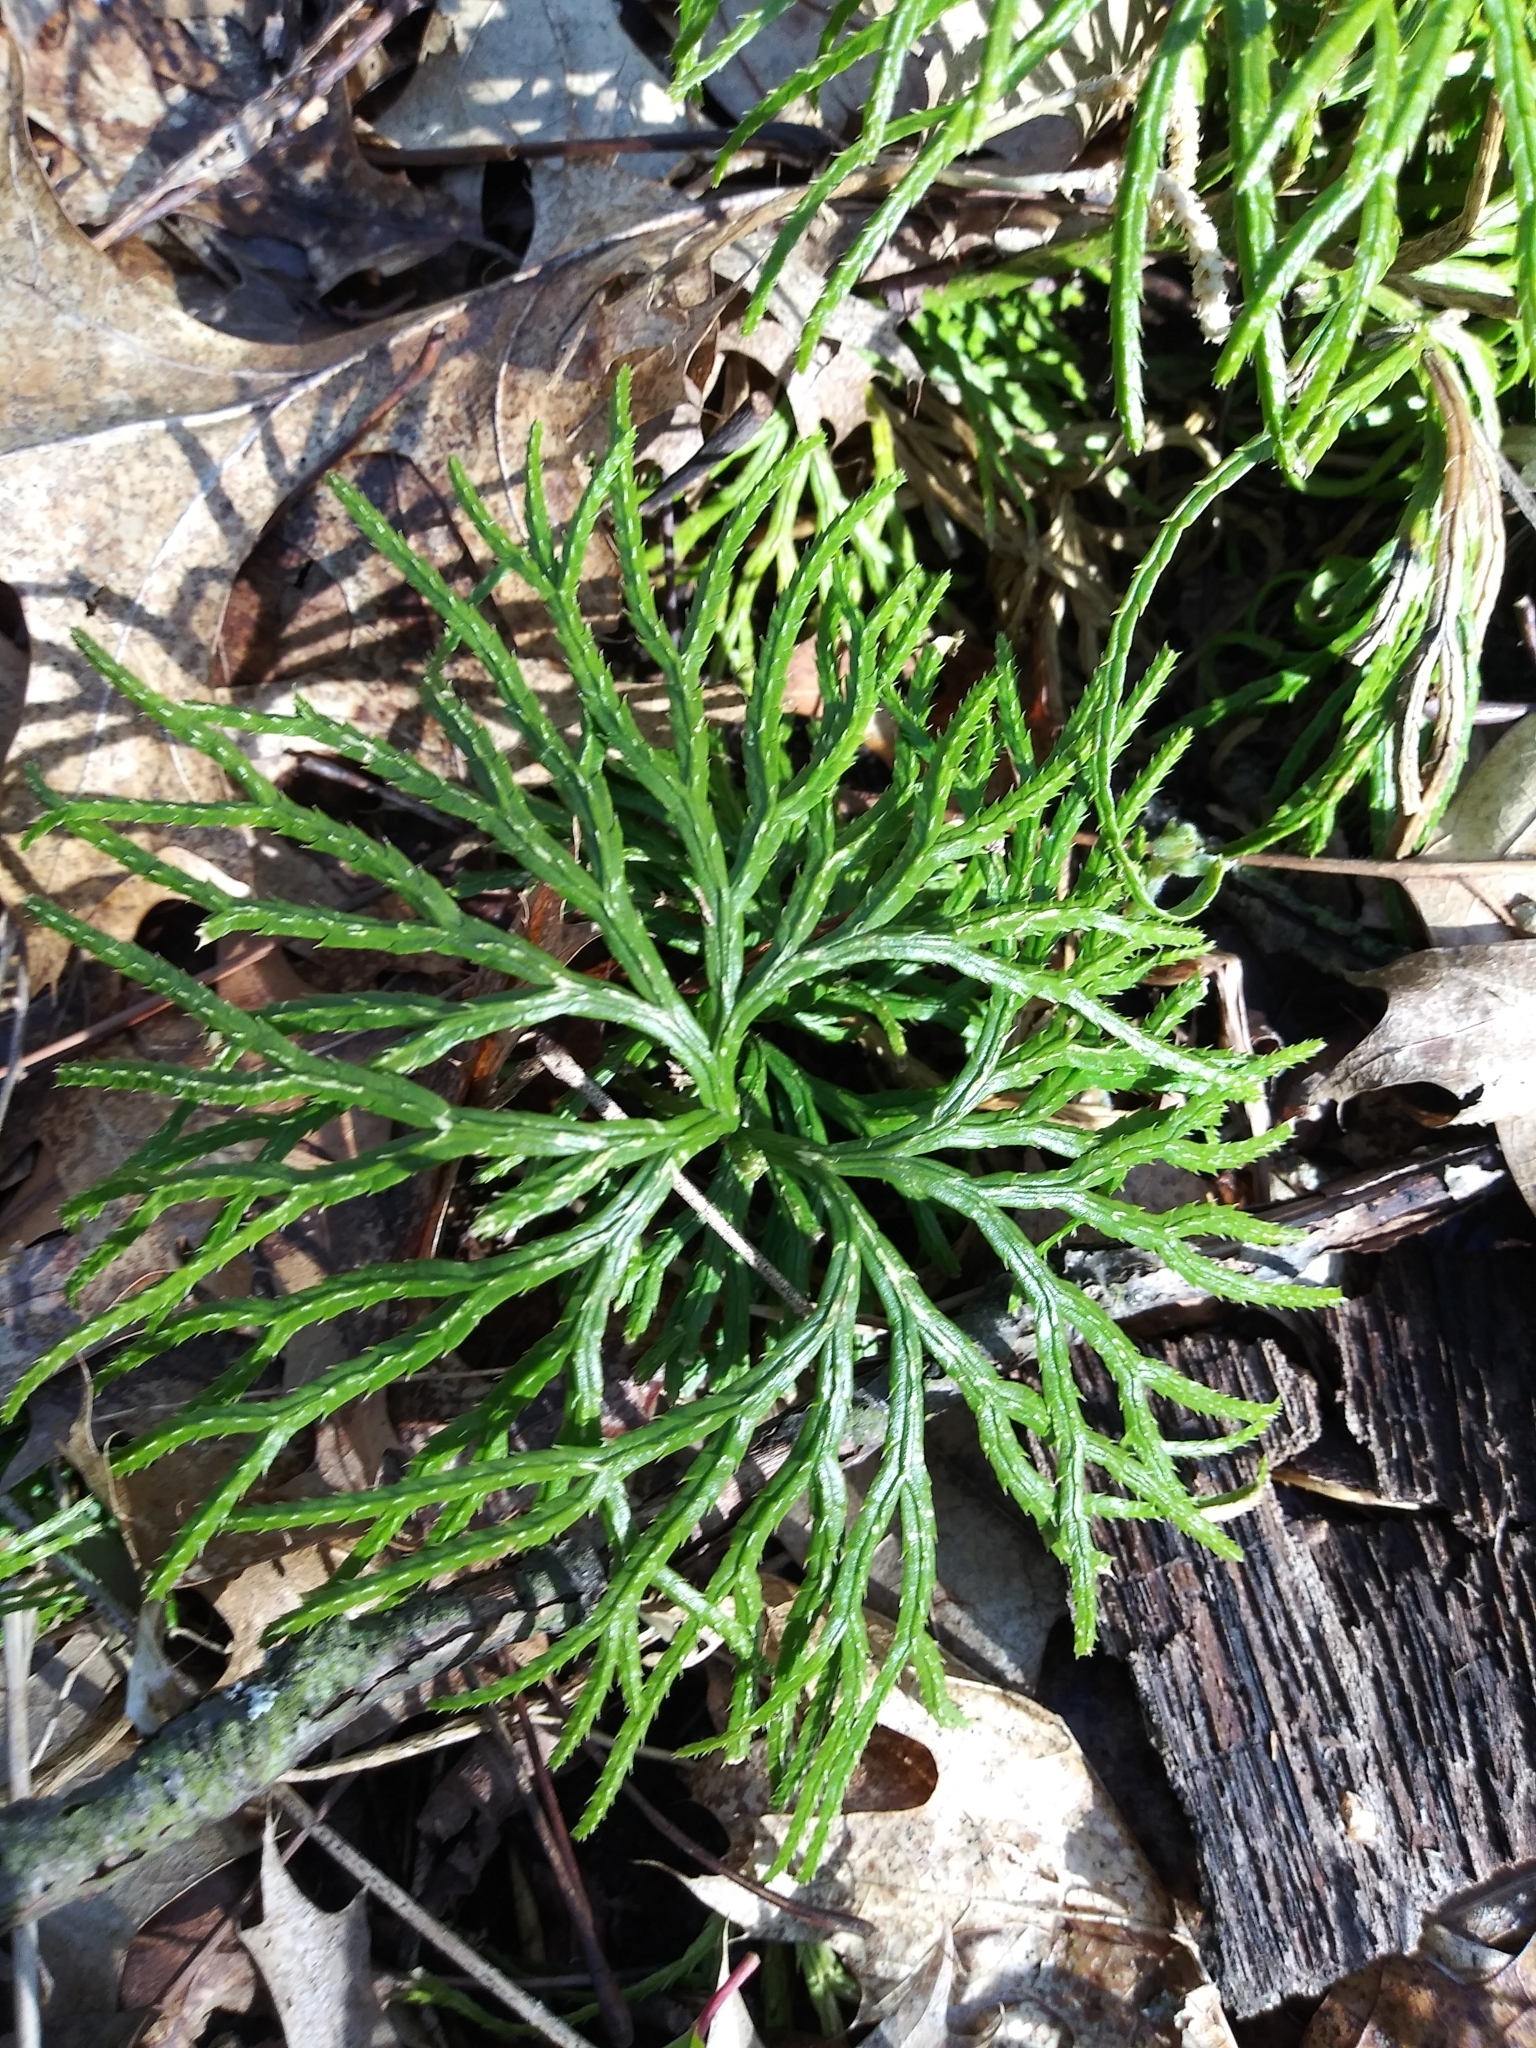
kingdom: Plantae
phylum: Tracheophyta
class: Lycopodiopsida
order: Lycopodiales
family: Lycopodiaceae
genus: Diphasiastrum
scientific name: Diphasiastrum digitatum
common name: Southern running-pine
